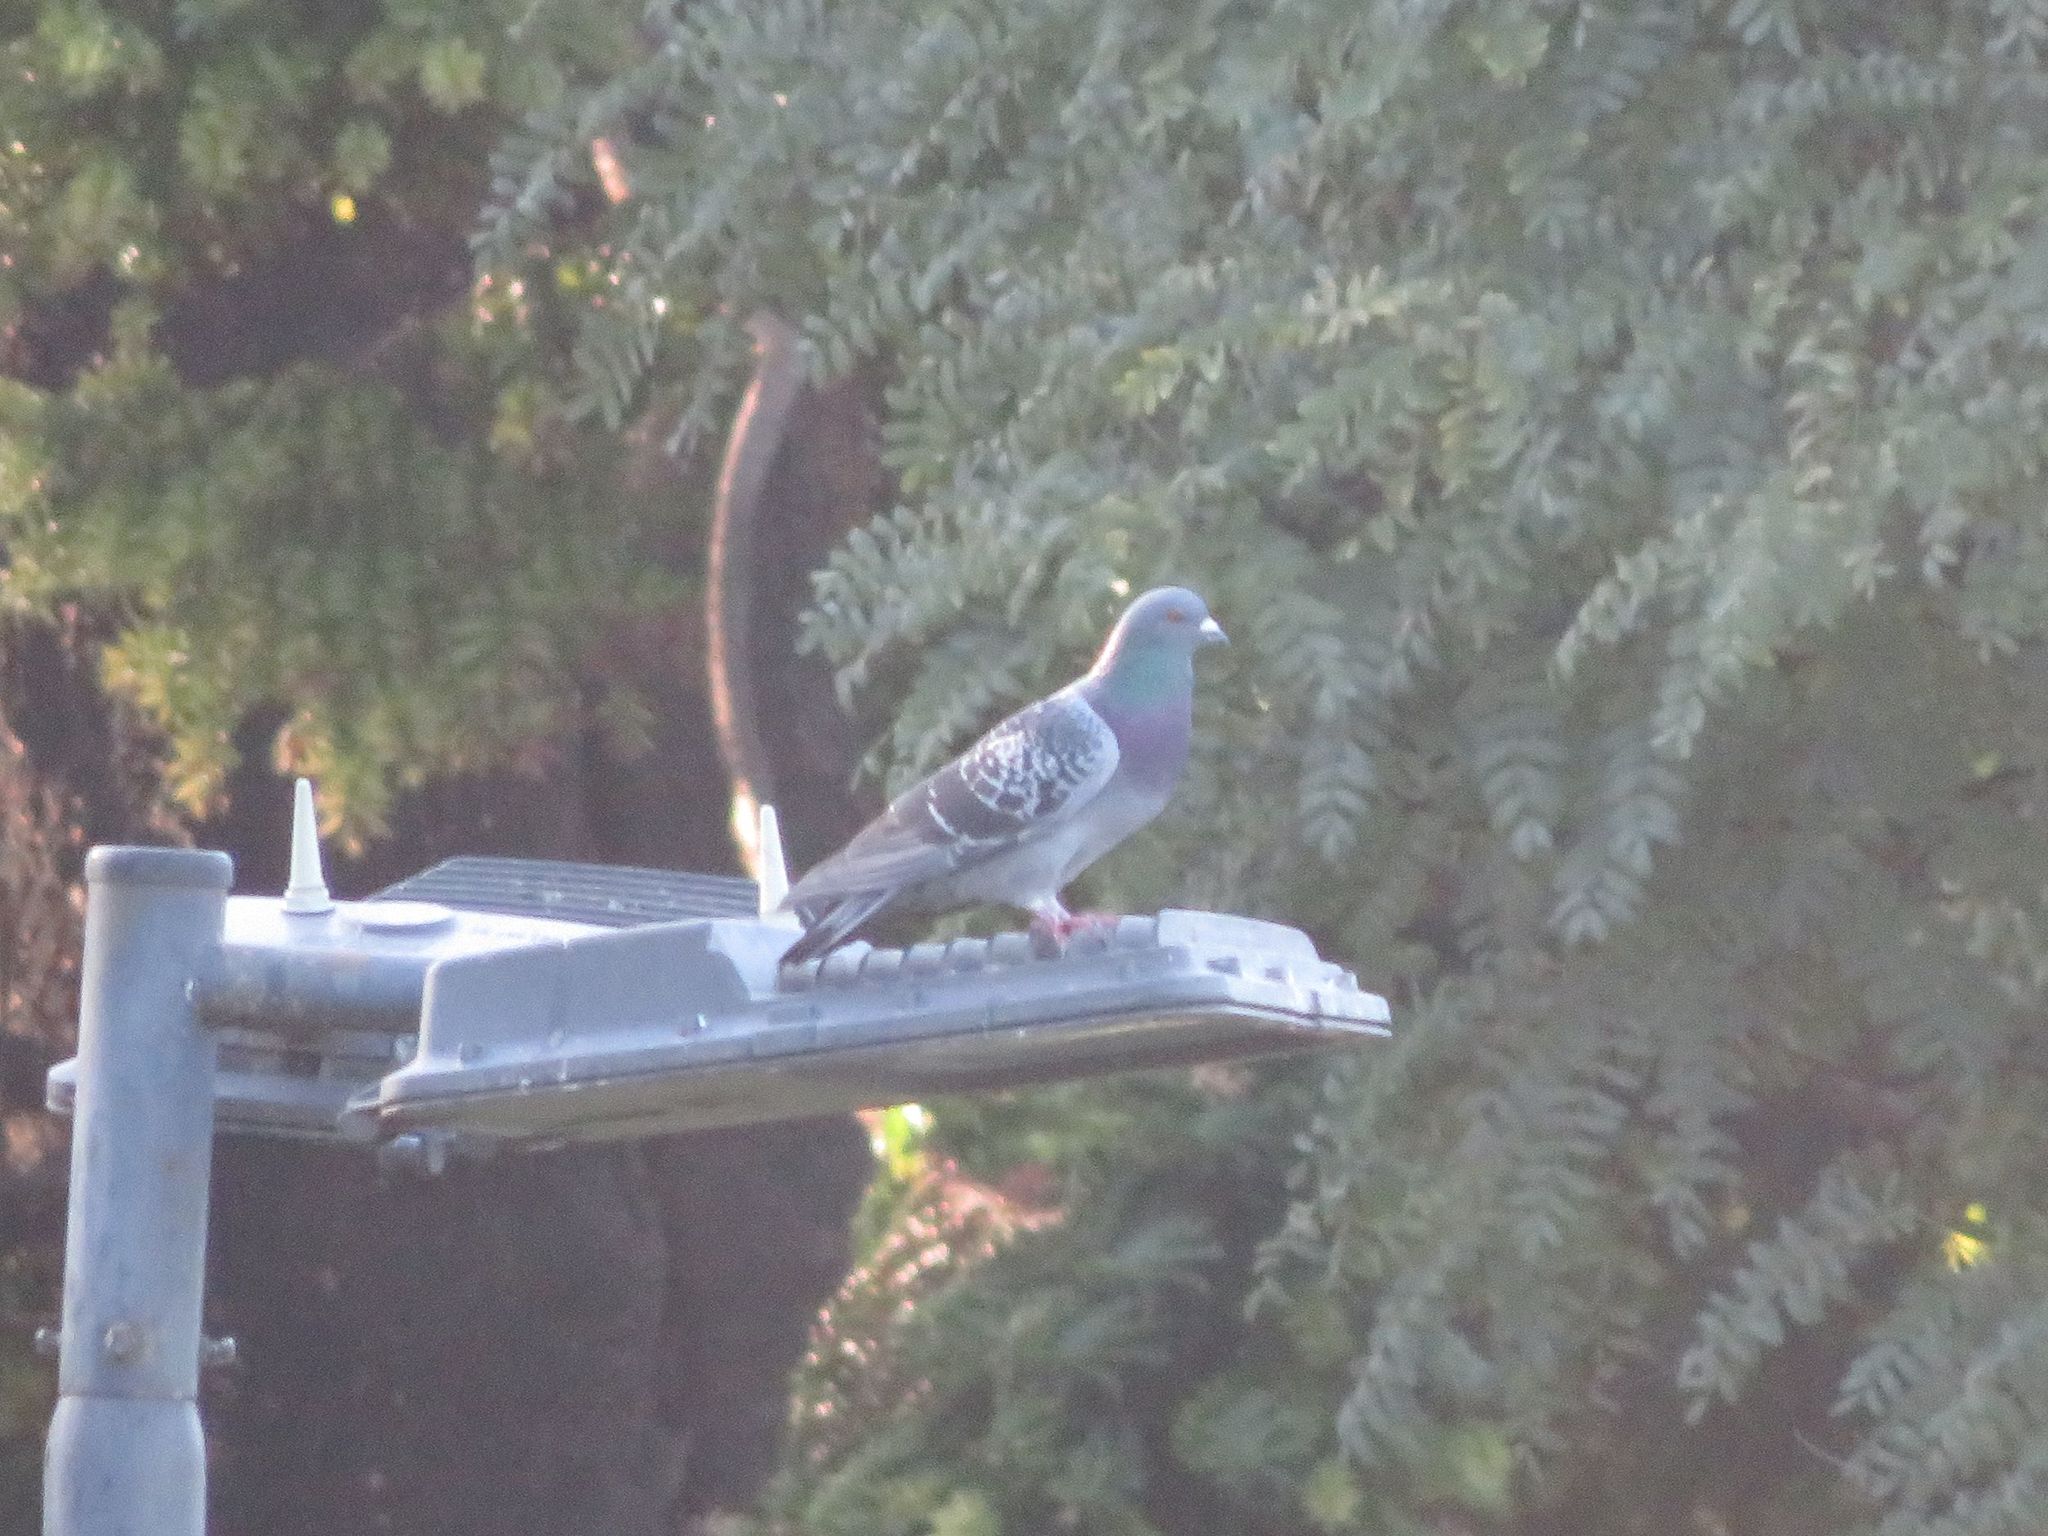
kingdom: Animalia
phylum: Chordata
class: Aves
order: Columbiformes
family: Columbidae
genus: Columba
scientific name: Columba livia
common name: Rock pigeon
